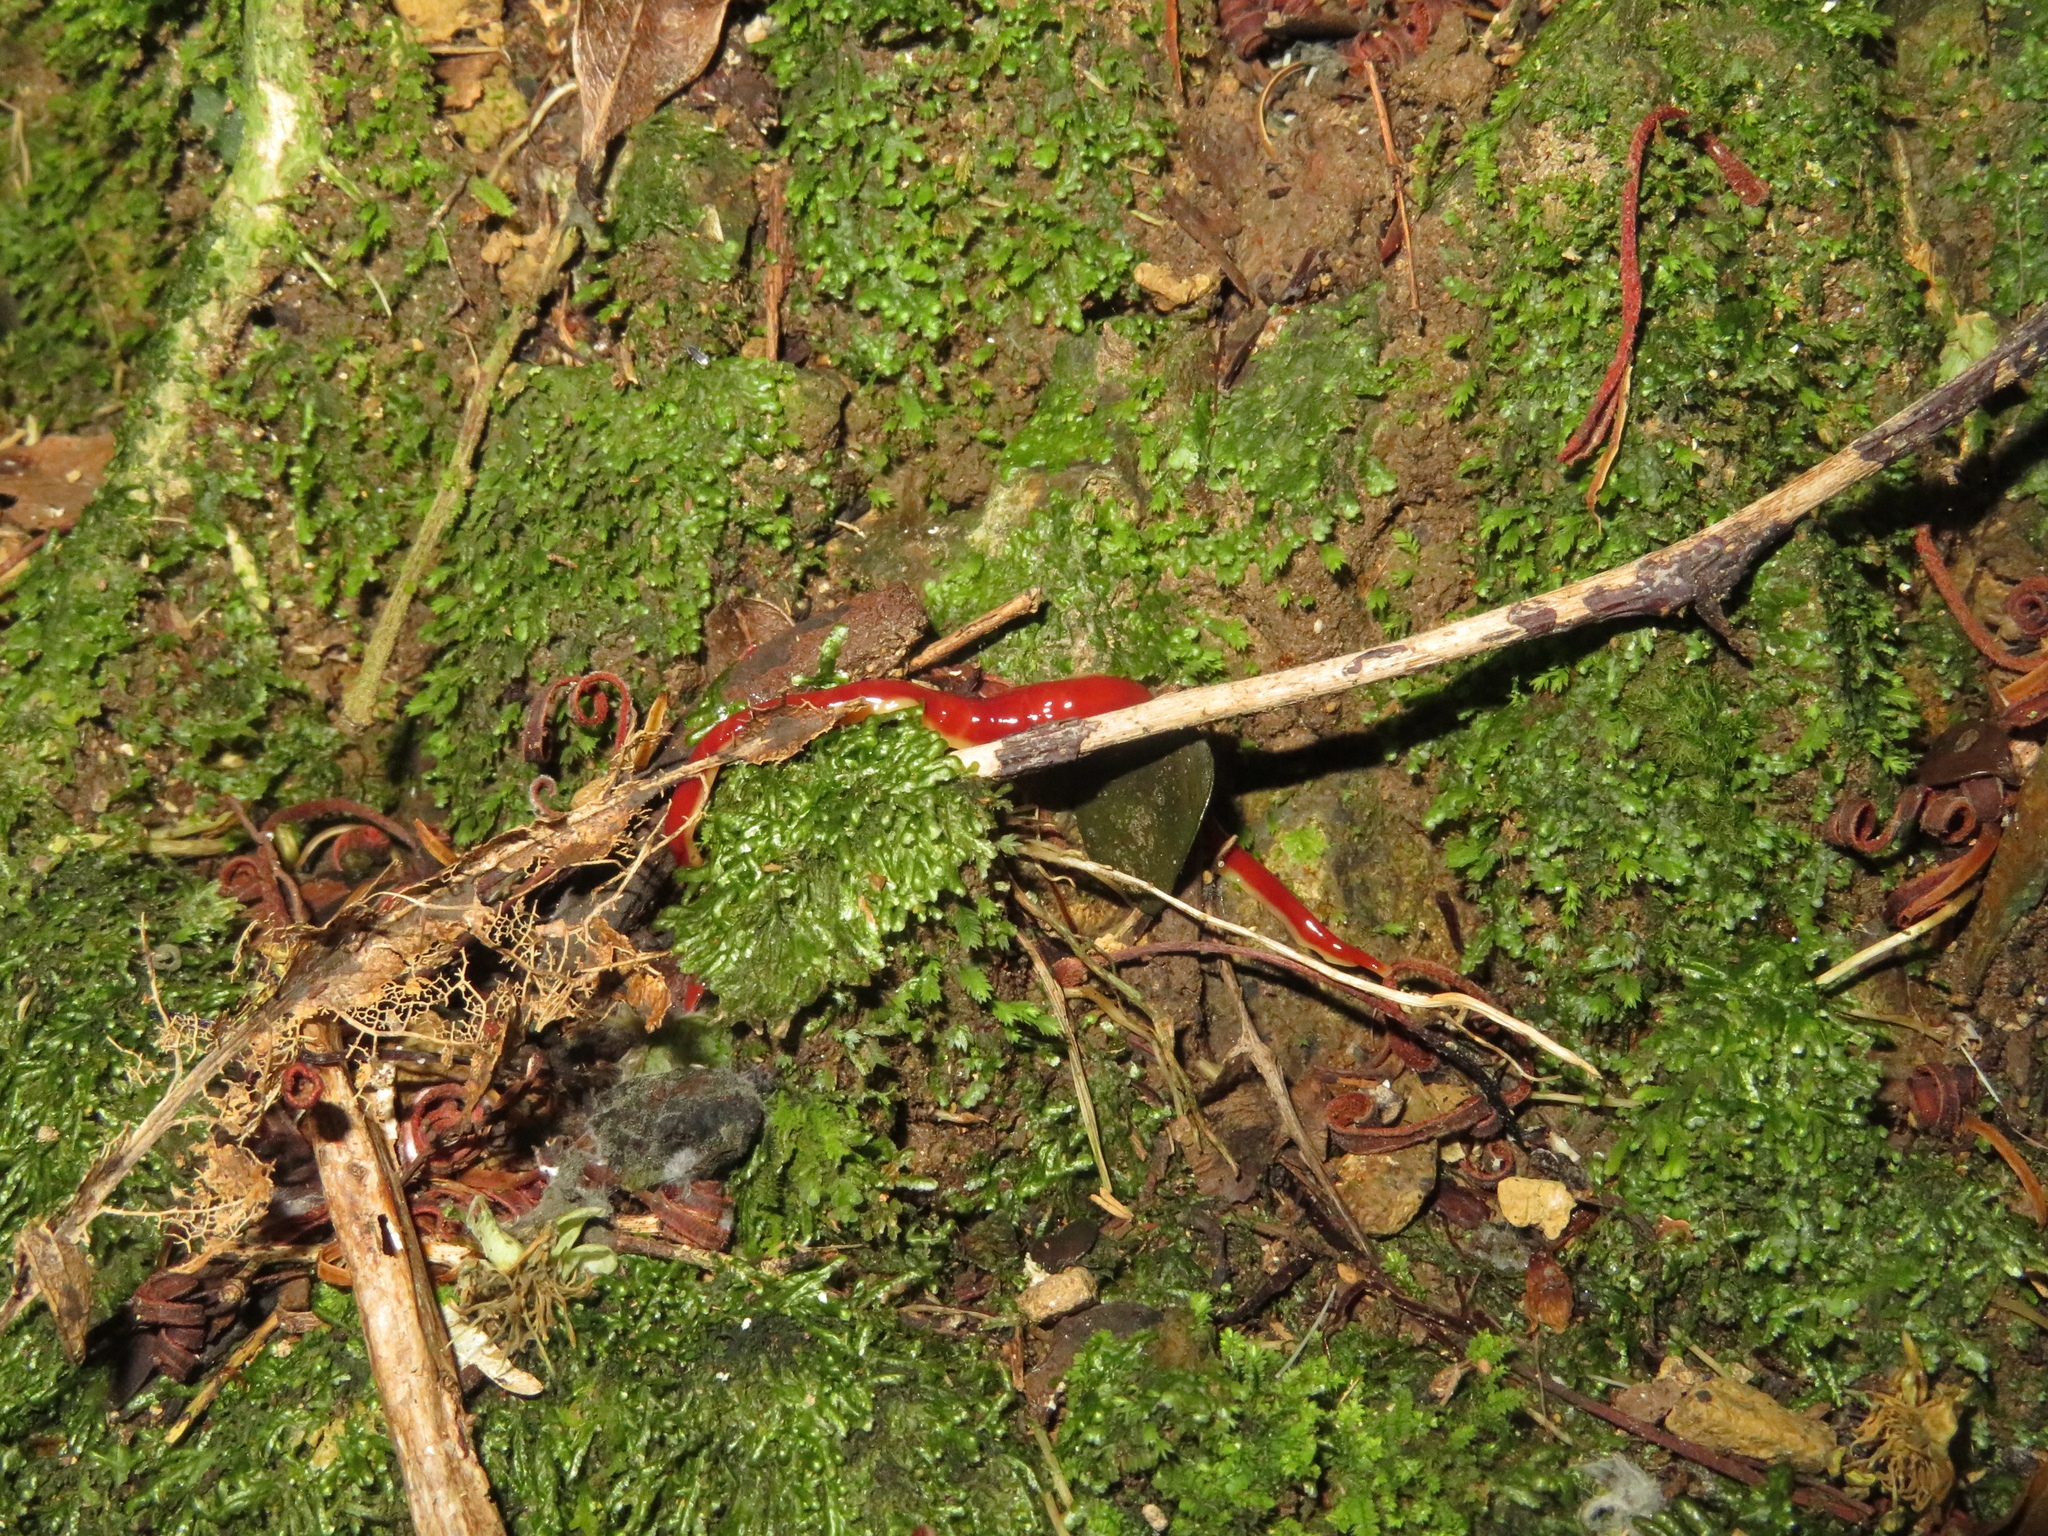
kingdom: Animalia
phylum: Platyhelminthes
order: Tricladida
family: Geoplanidae
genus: Arthurdendyus
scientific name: Arthurdendyus testaceus
